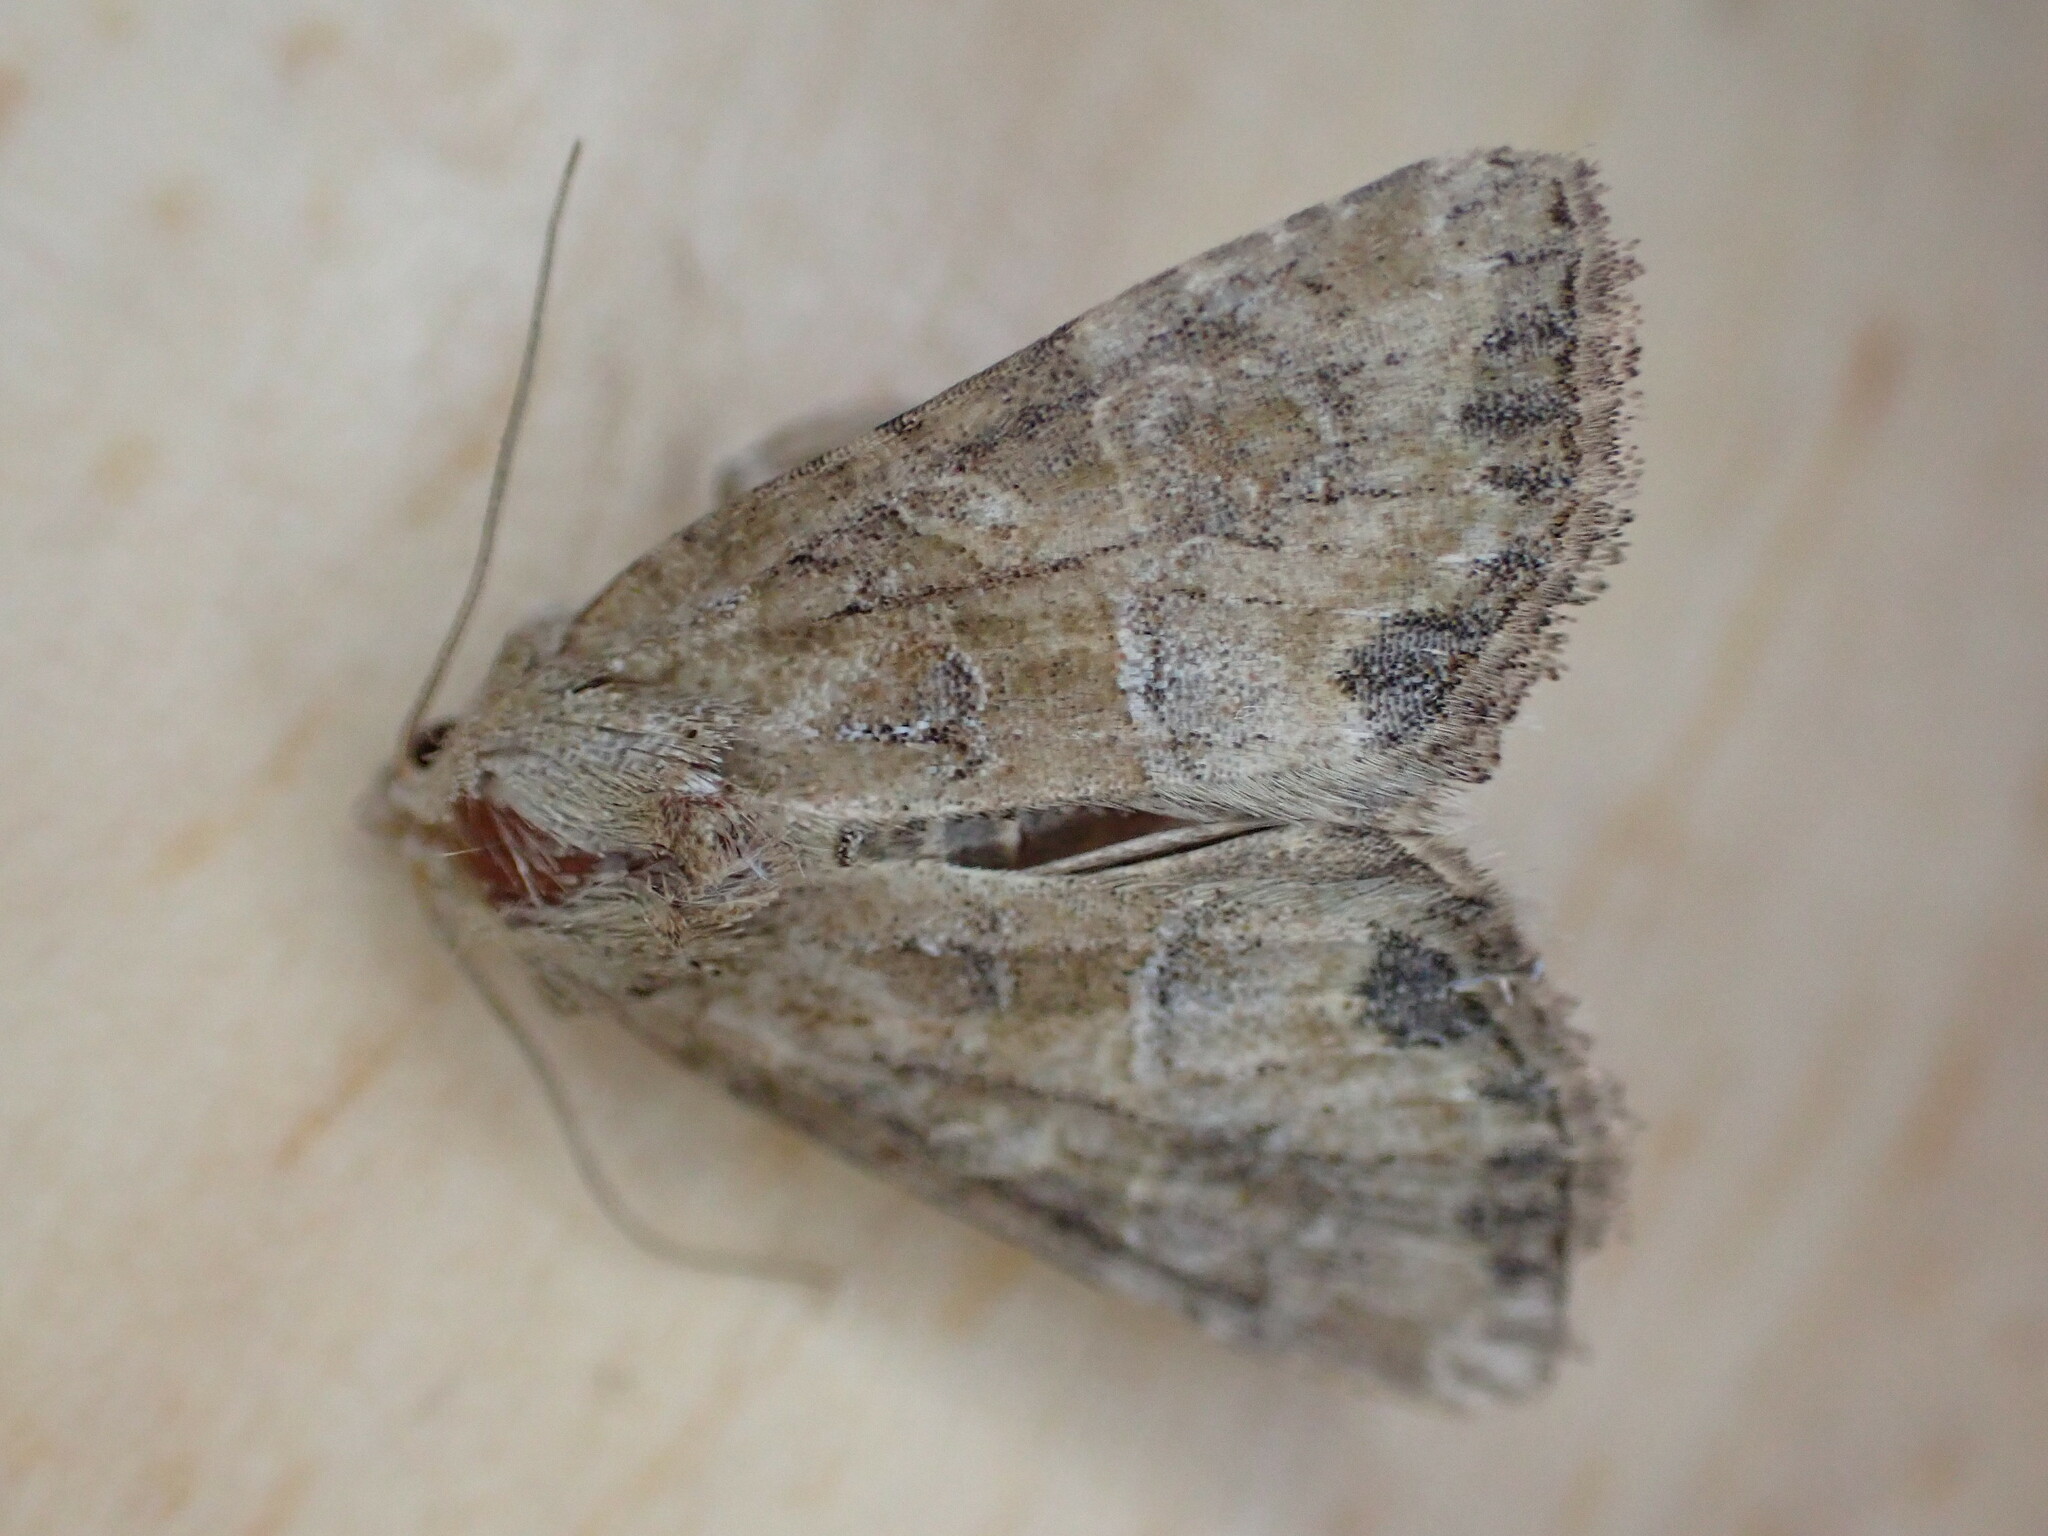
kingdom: Animalia
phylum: Arthropoda
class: Insecta
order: Lepidoptera
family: Noctuidae
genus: Mesoligia
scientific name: Mesoligia furuncula
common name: Cloaked minor
